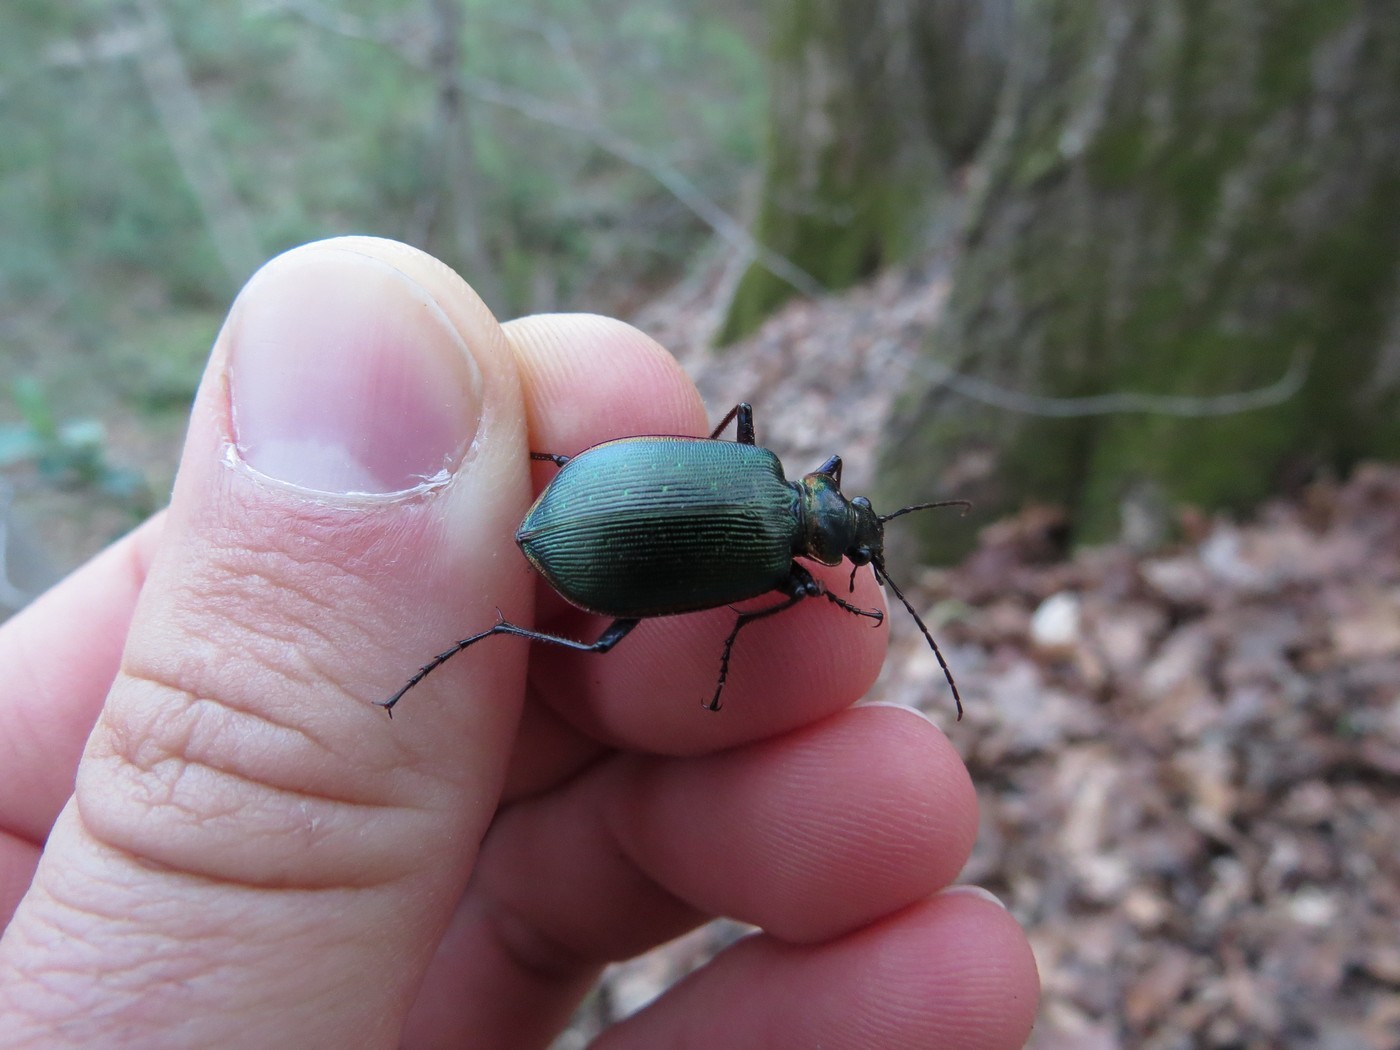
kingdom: Animalia
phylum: Arthropoda
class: Insecta
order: Coleoptera
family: Carabidae
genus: Calosoma
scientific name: Calosoma wilcoxi
